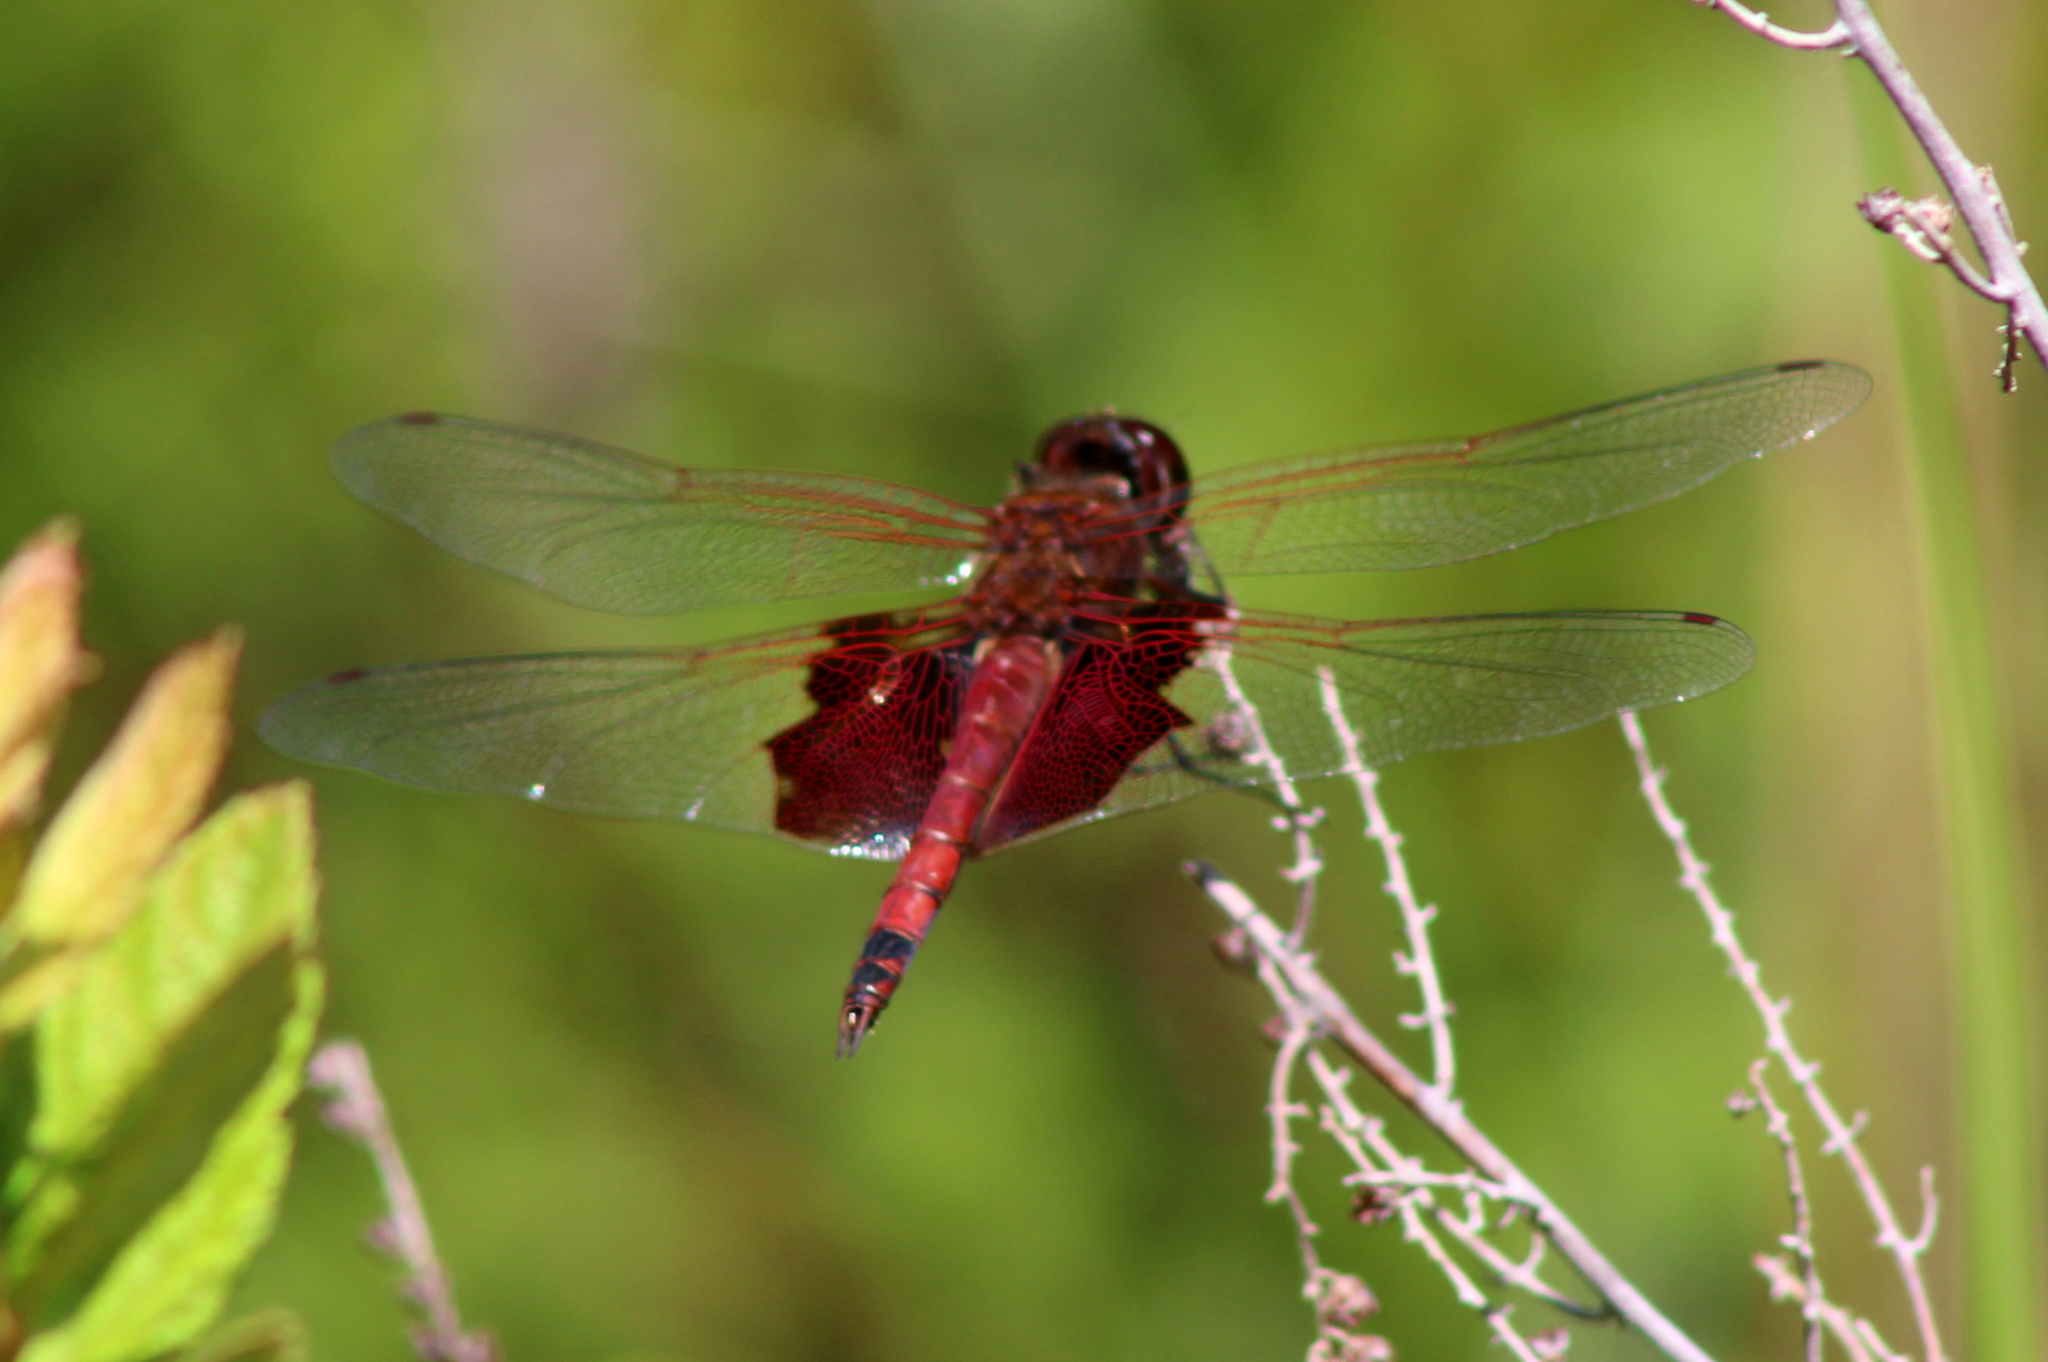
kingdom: Animalia
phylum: Arthropoda
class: Insecta
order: Odonata
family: Libellulidae
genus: Tramea
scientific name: Tramea carolina
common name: Carolina saddlebags
